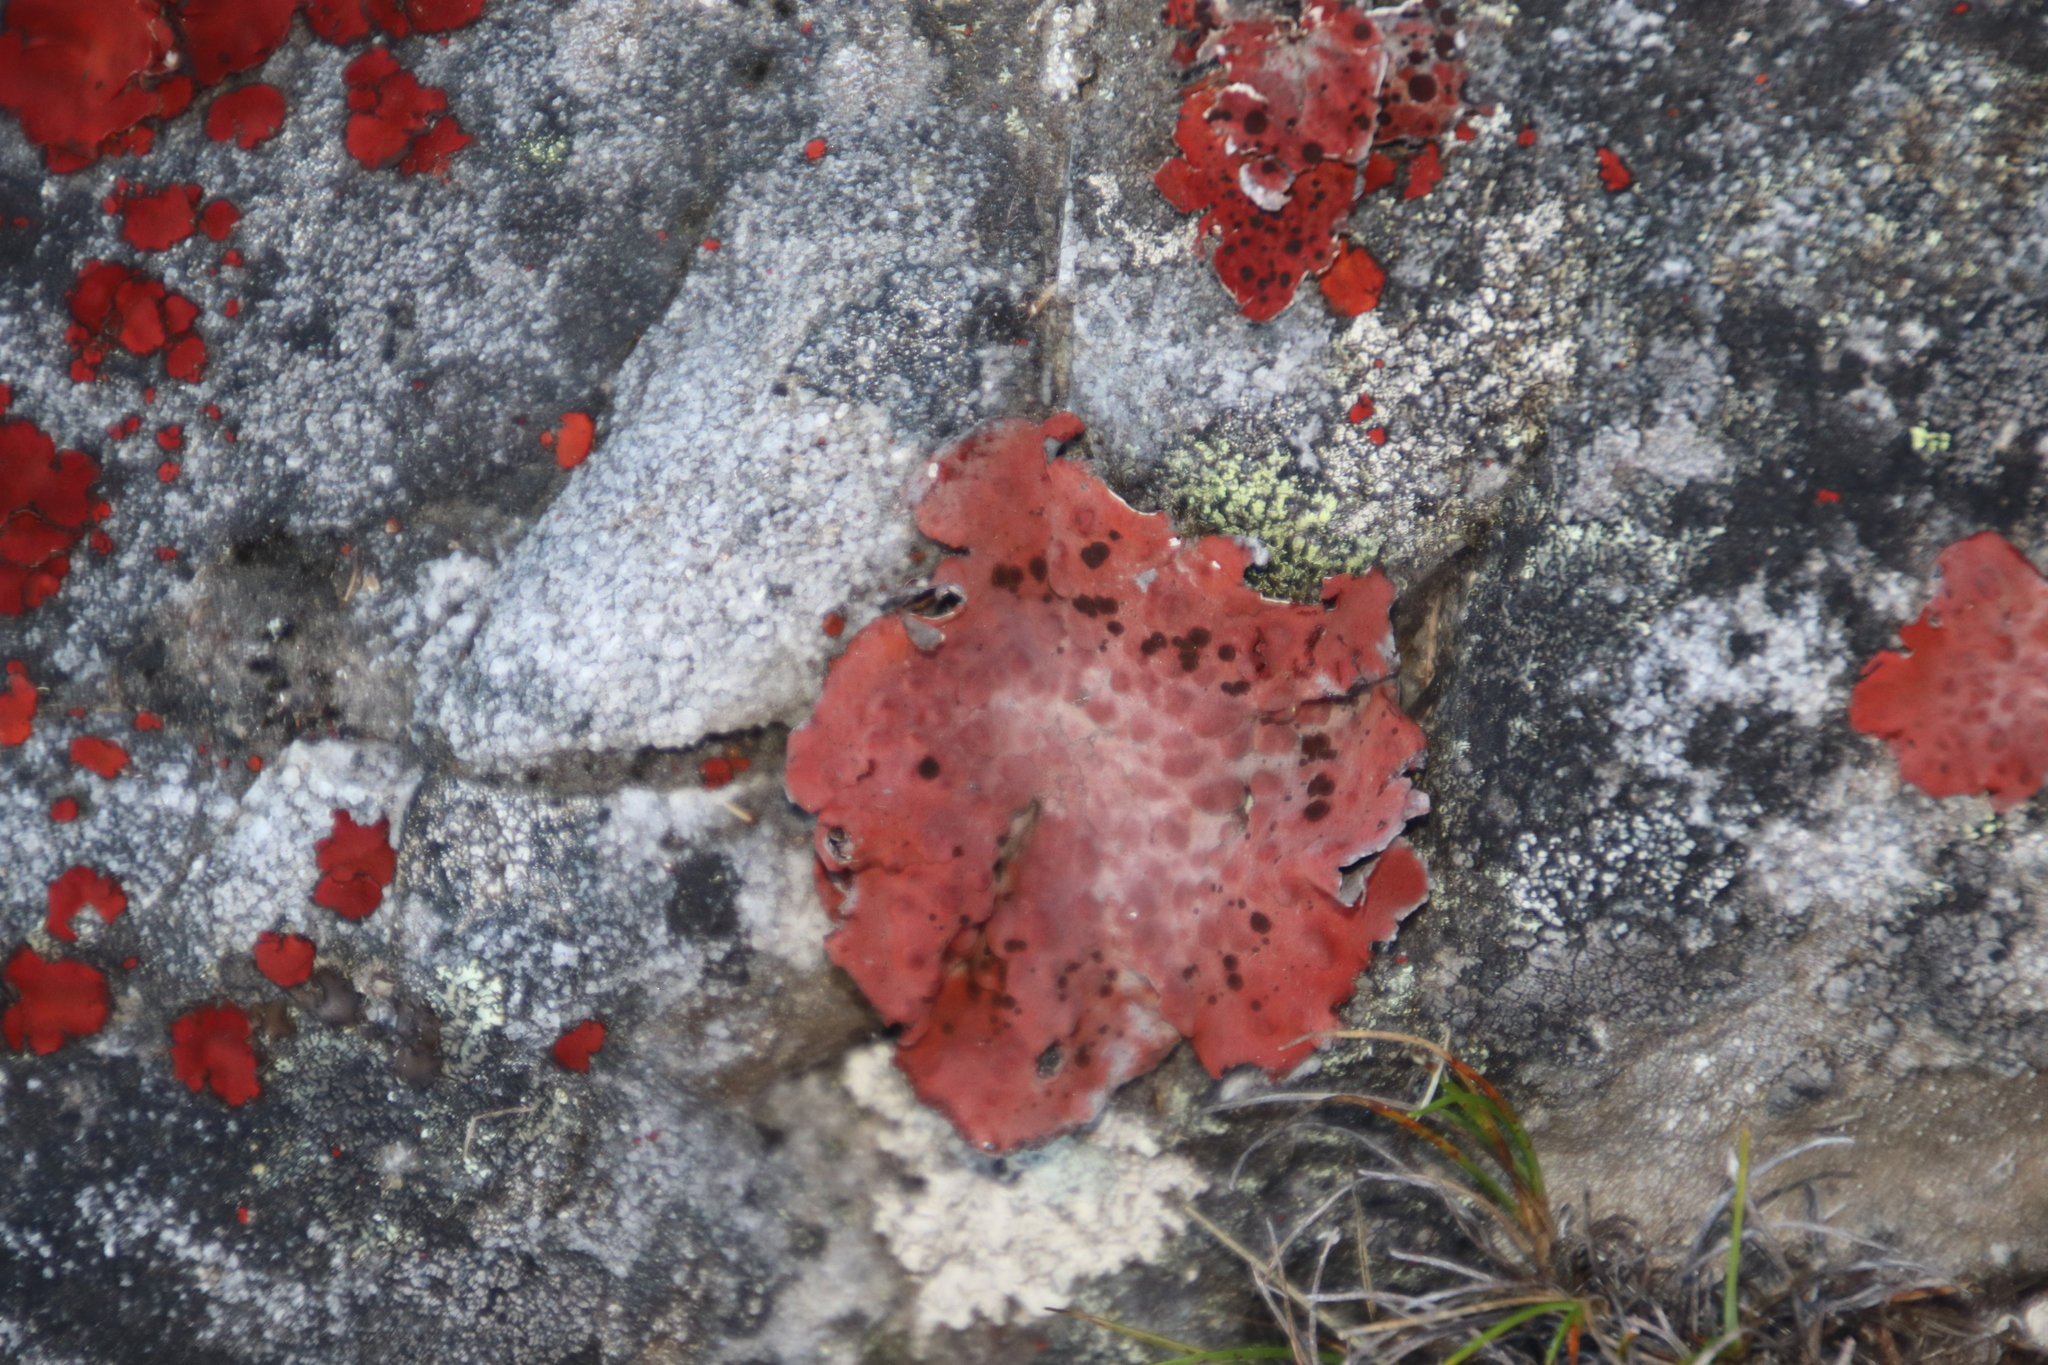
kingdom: Fungi
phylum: Ascomycota
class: Lecanoromycetes
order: Umbilicariales
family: Umbilicariaceae
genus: Lasallia
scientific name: Lasallia rubiginosa
